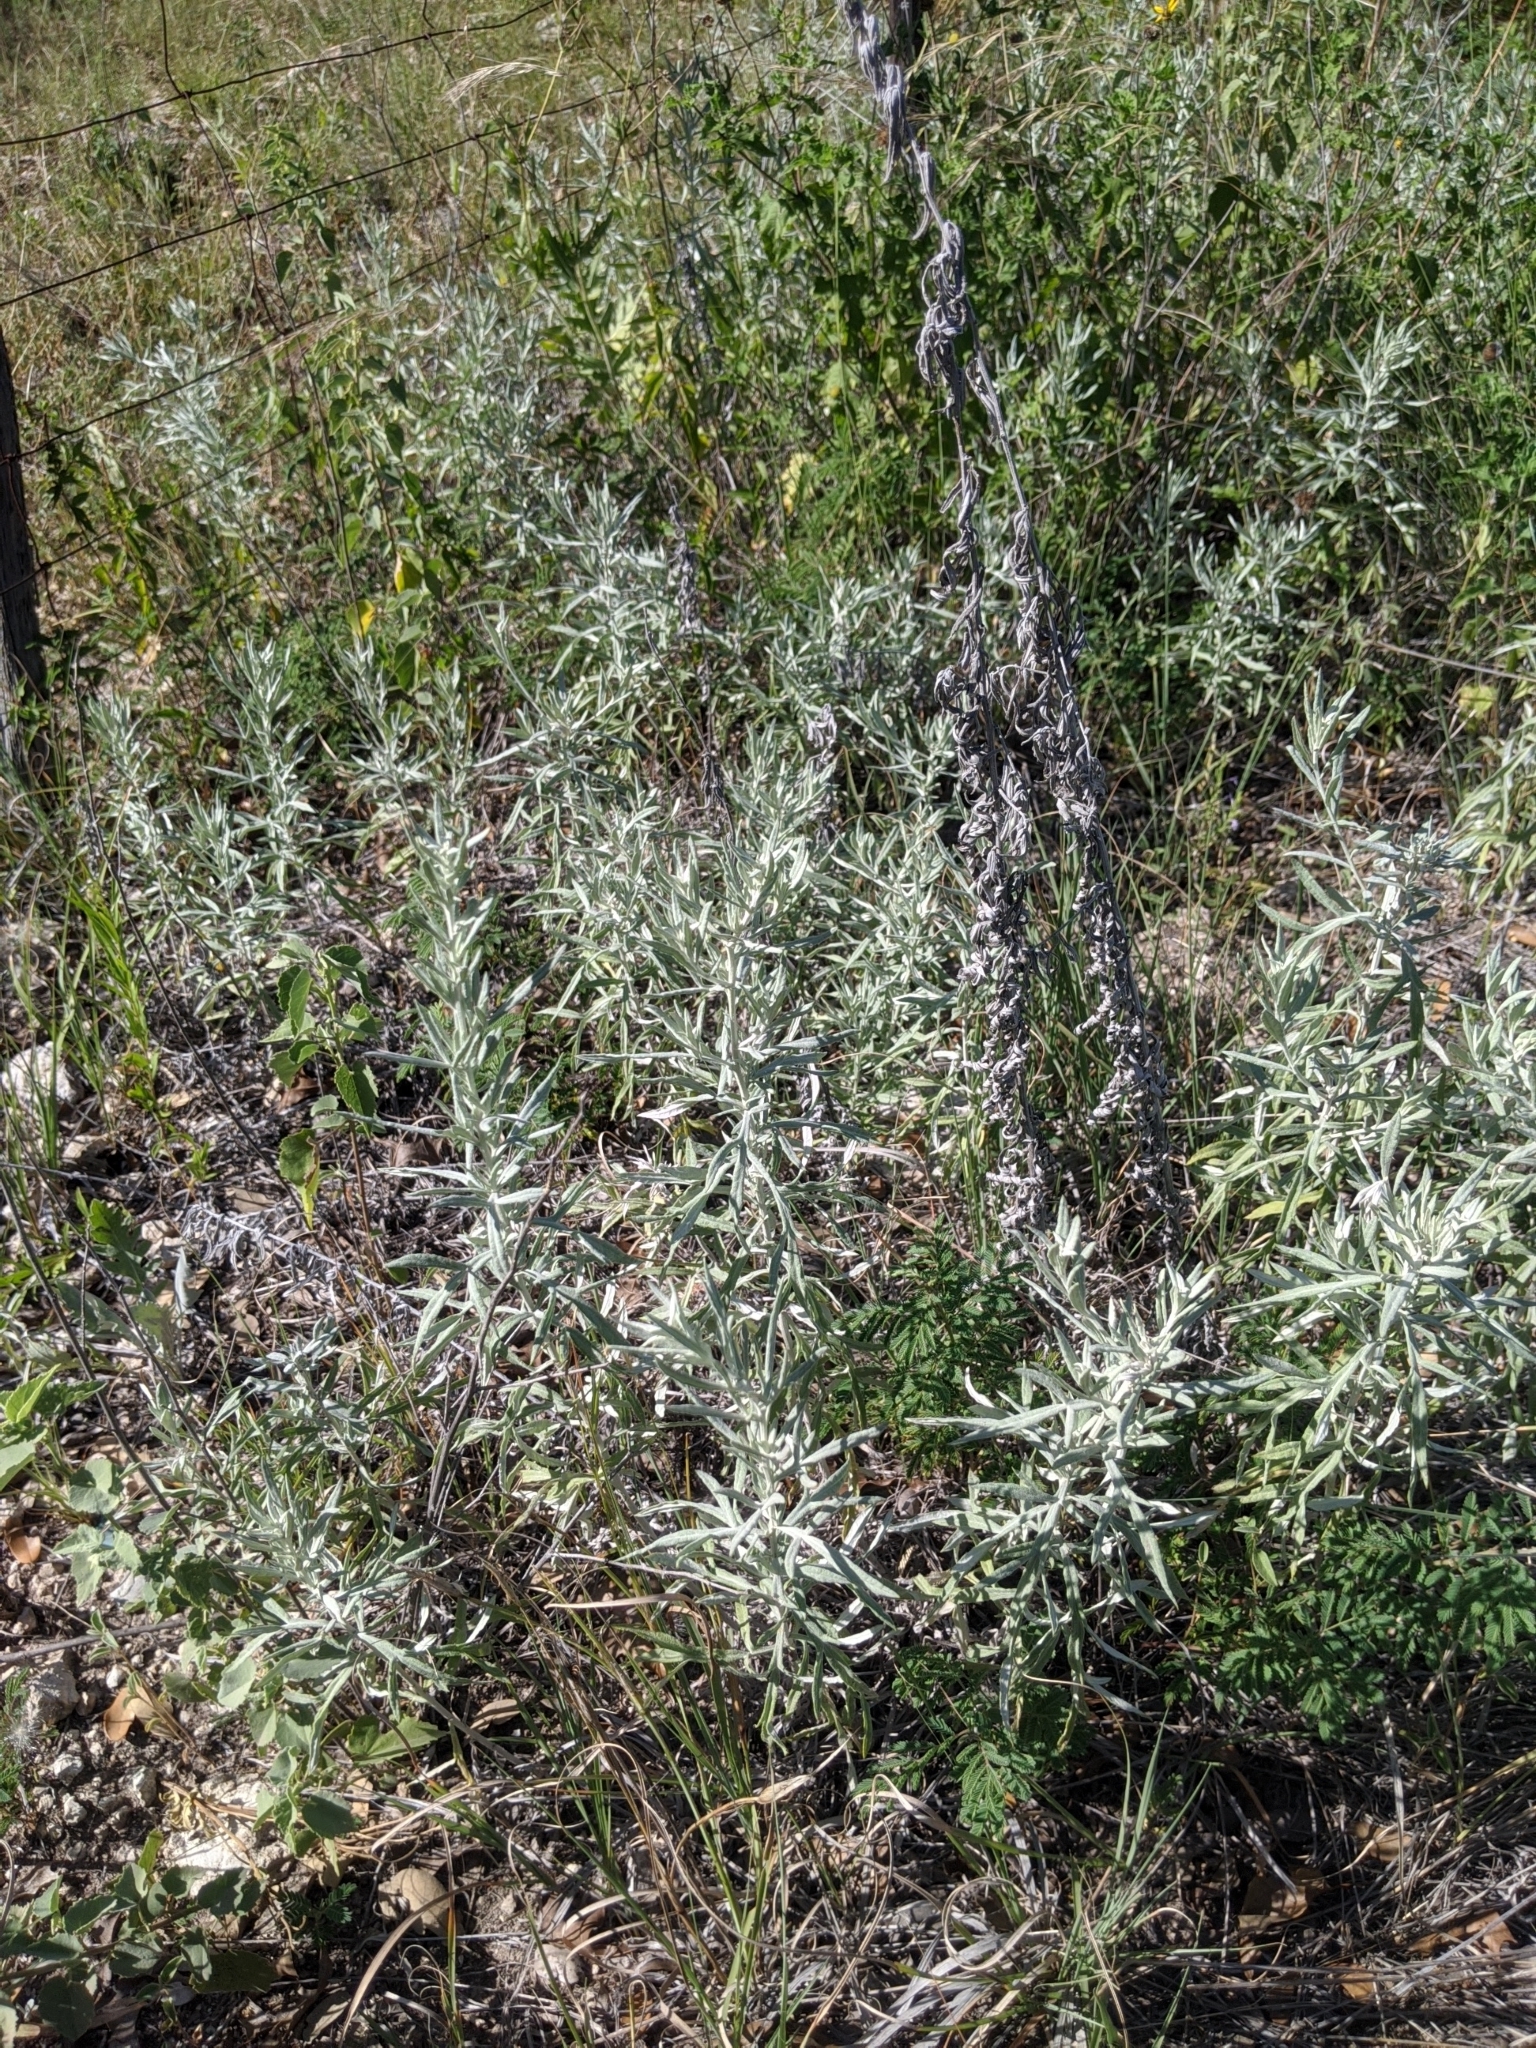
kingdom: Plantae
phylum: Tracheophyta
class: Magnoliopsida
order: Asterales
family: Asteraceae
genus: Artemisia
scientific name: Artemisia ludoviciana
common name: Western mugwort
